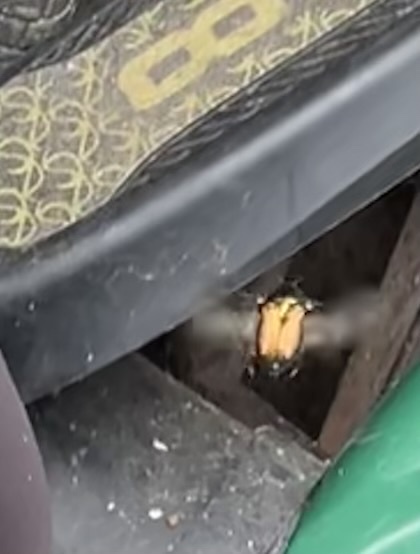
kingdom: Animalia
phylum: Arthropoda
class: Insecta
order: Coleoptera
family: Scarabaeidae
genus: Cetonia
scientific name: Cetonia aurata
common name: Rose chafer
